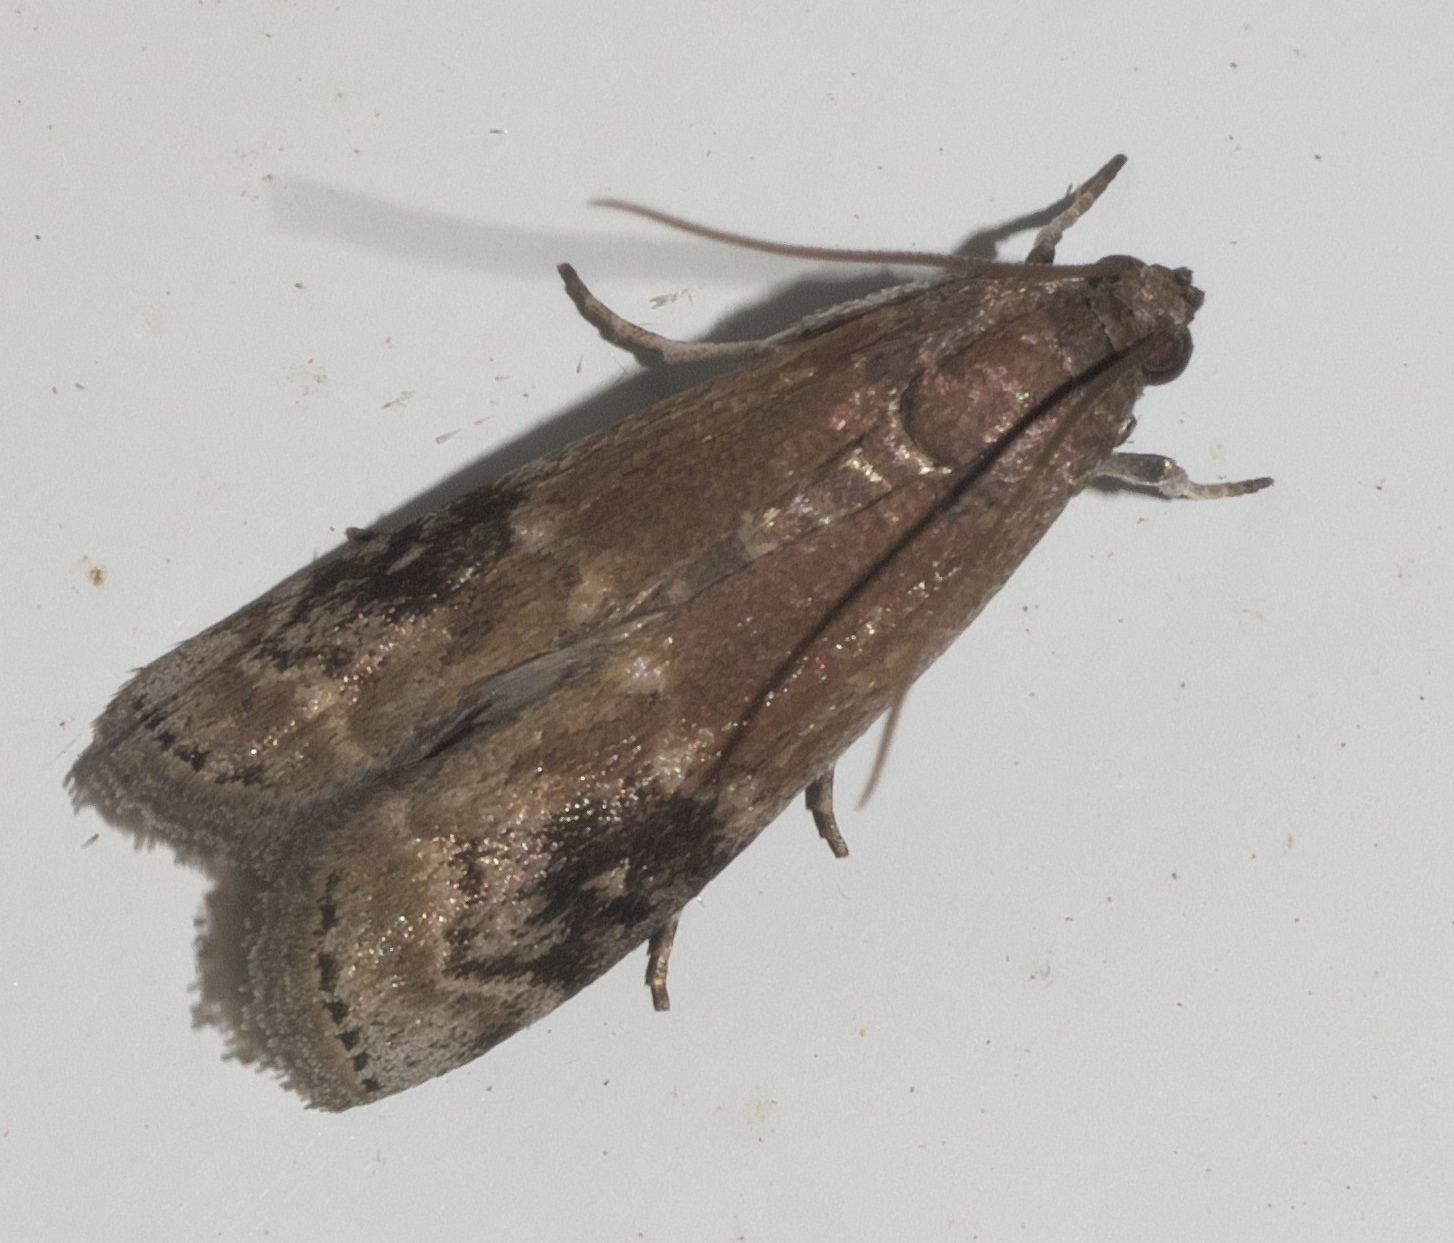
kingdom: Animalia
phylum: Arthropoda
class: Insecta
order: Lepidoptera
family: Pyralidae
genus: Euzophera
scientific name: Euzophera semifuneralis
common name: American plum borer moth
